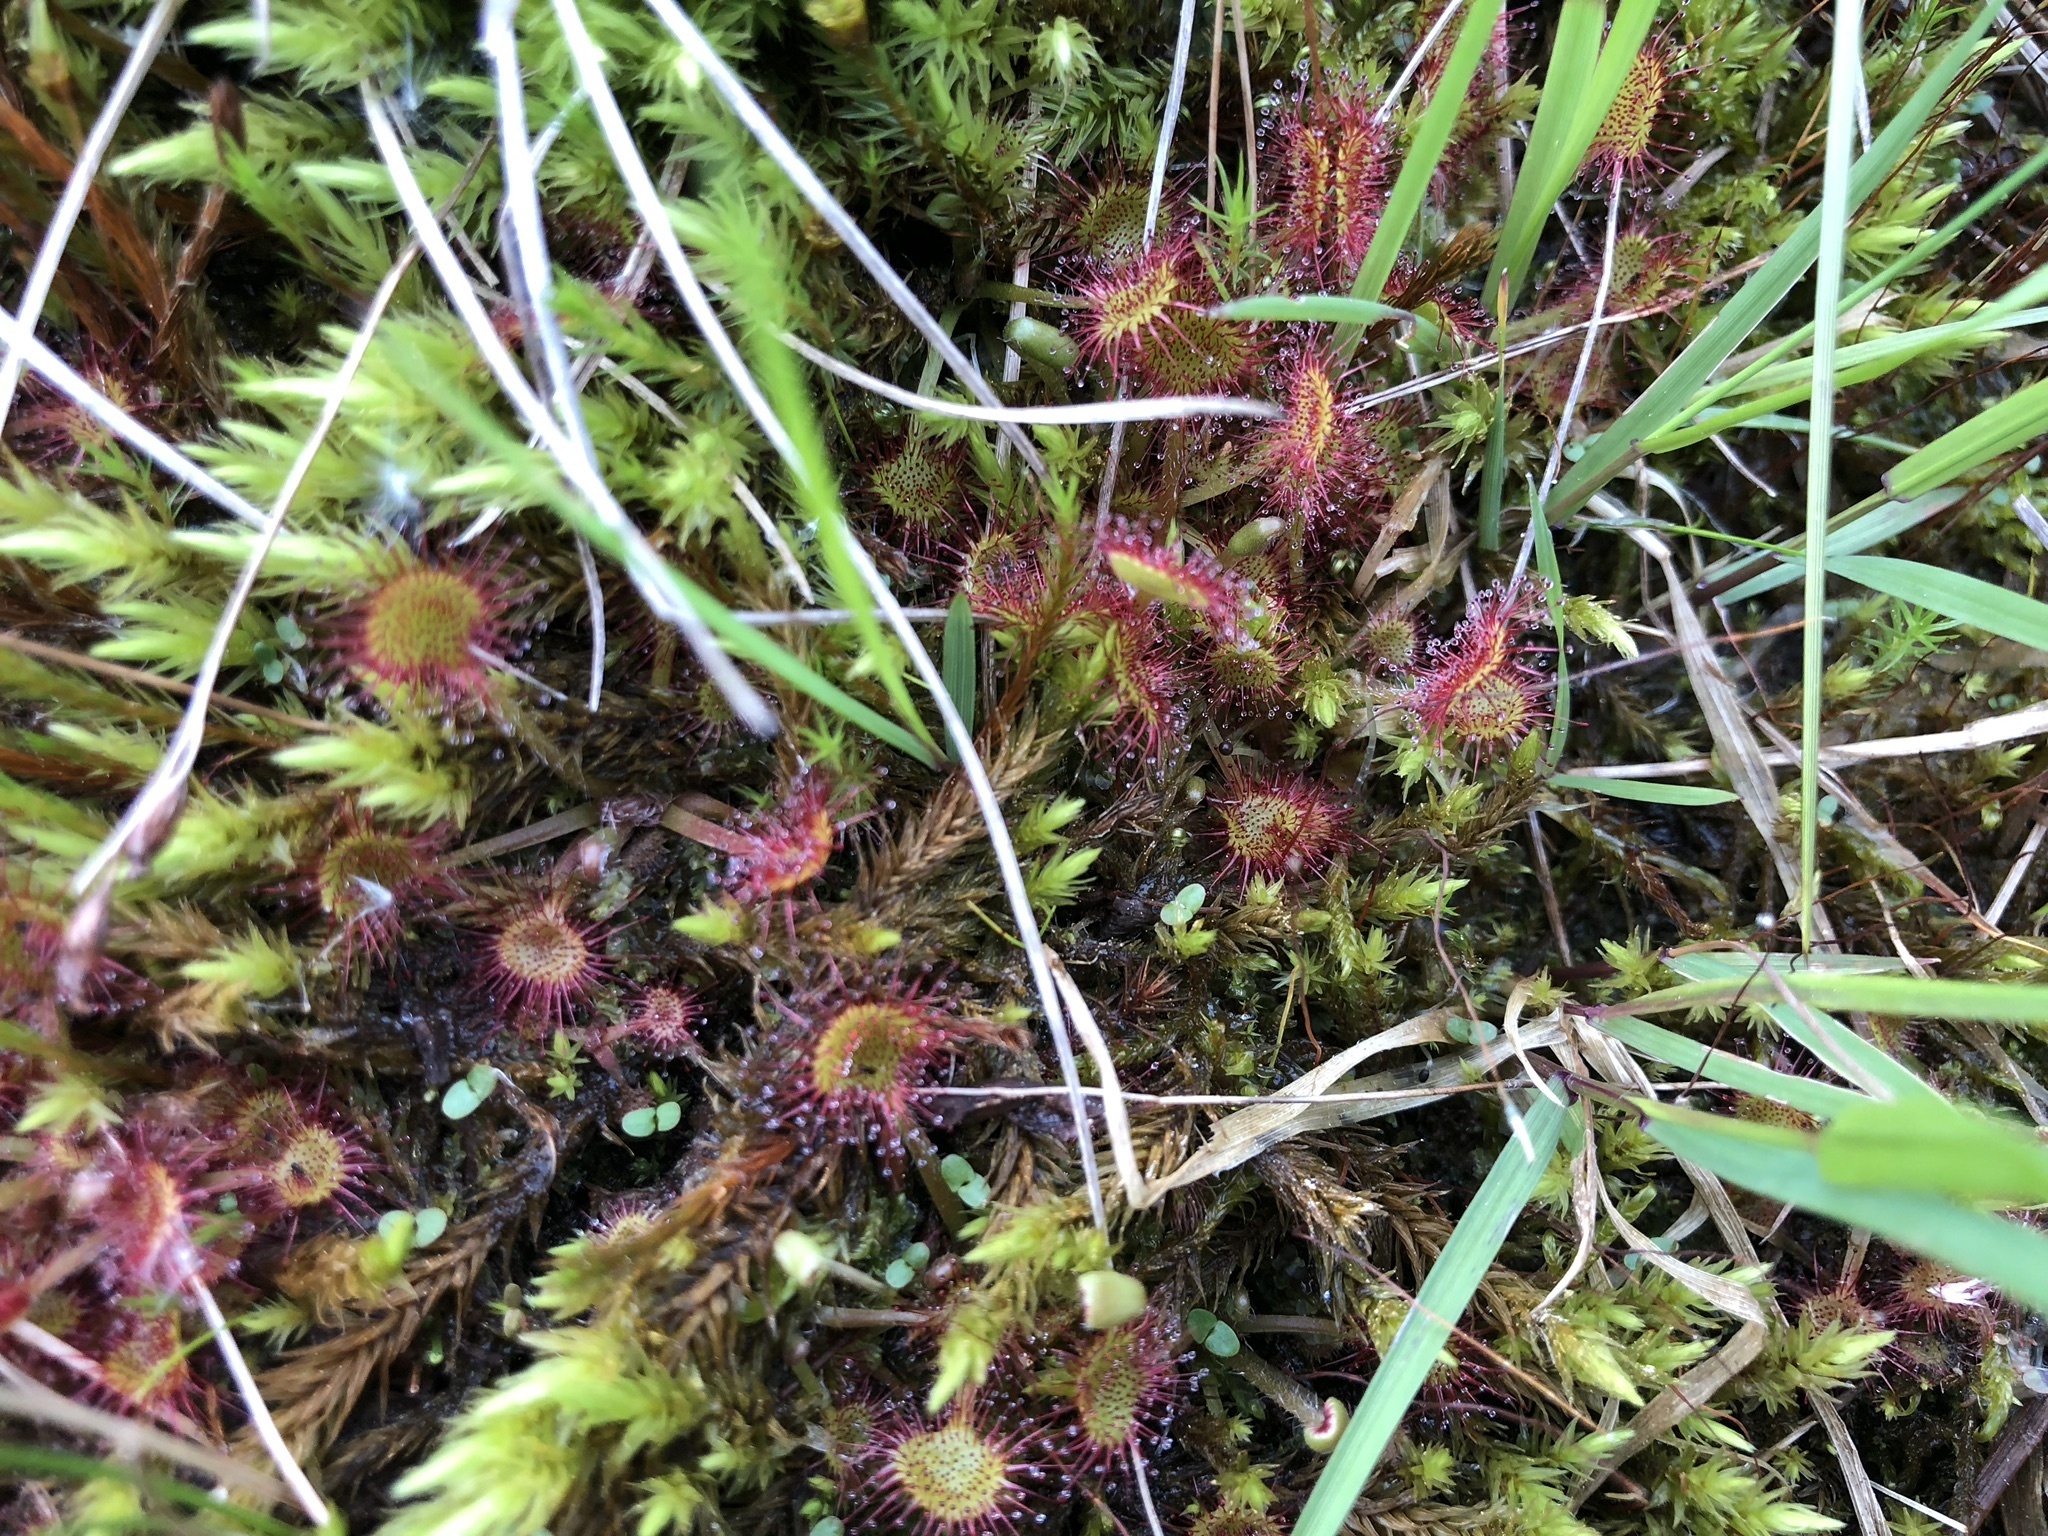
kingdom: Plantae
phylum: Tracheophyta
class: Magnoliopsida
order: Caryophyllales
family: Droseraceae
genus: Drosera
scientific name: Drosera rotundifolia
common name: Round-leaved sundew
